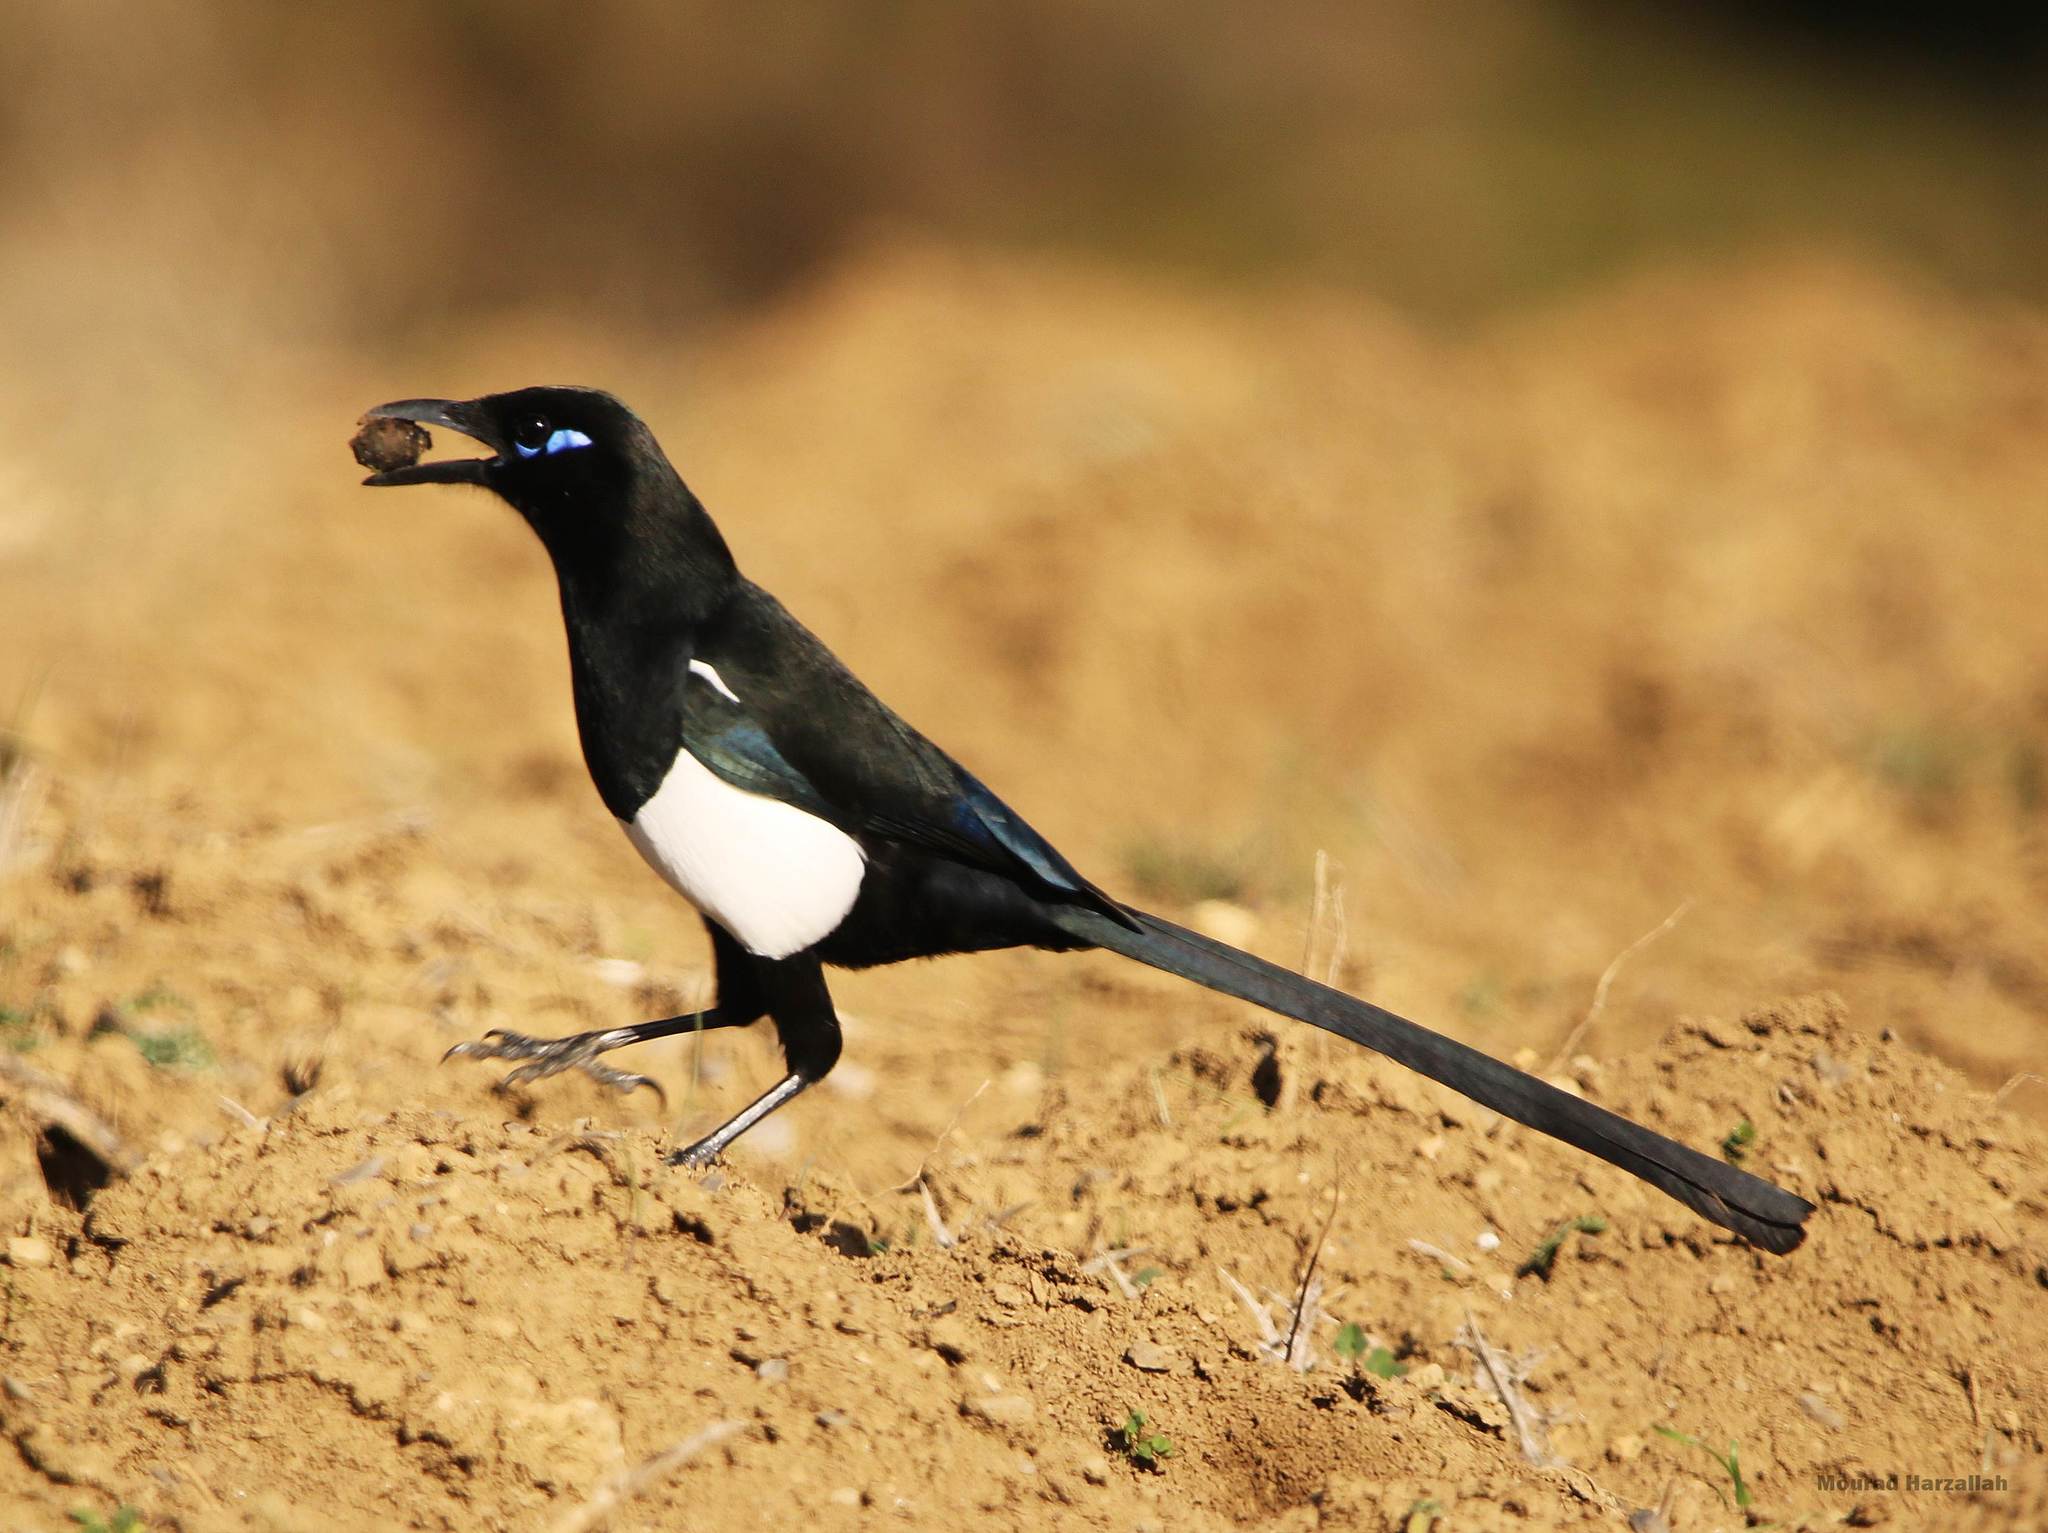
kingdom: Animalia
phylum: Chordata
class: Aves
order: Passeriformes
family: Corvidae
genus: Pica
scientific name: Pica mauritanica
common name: Maghreb magpie
